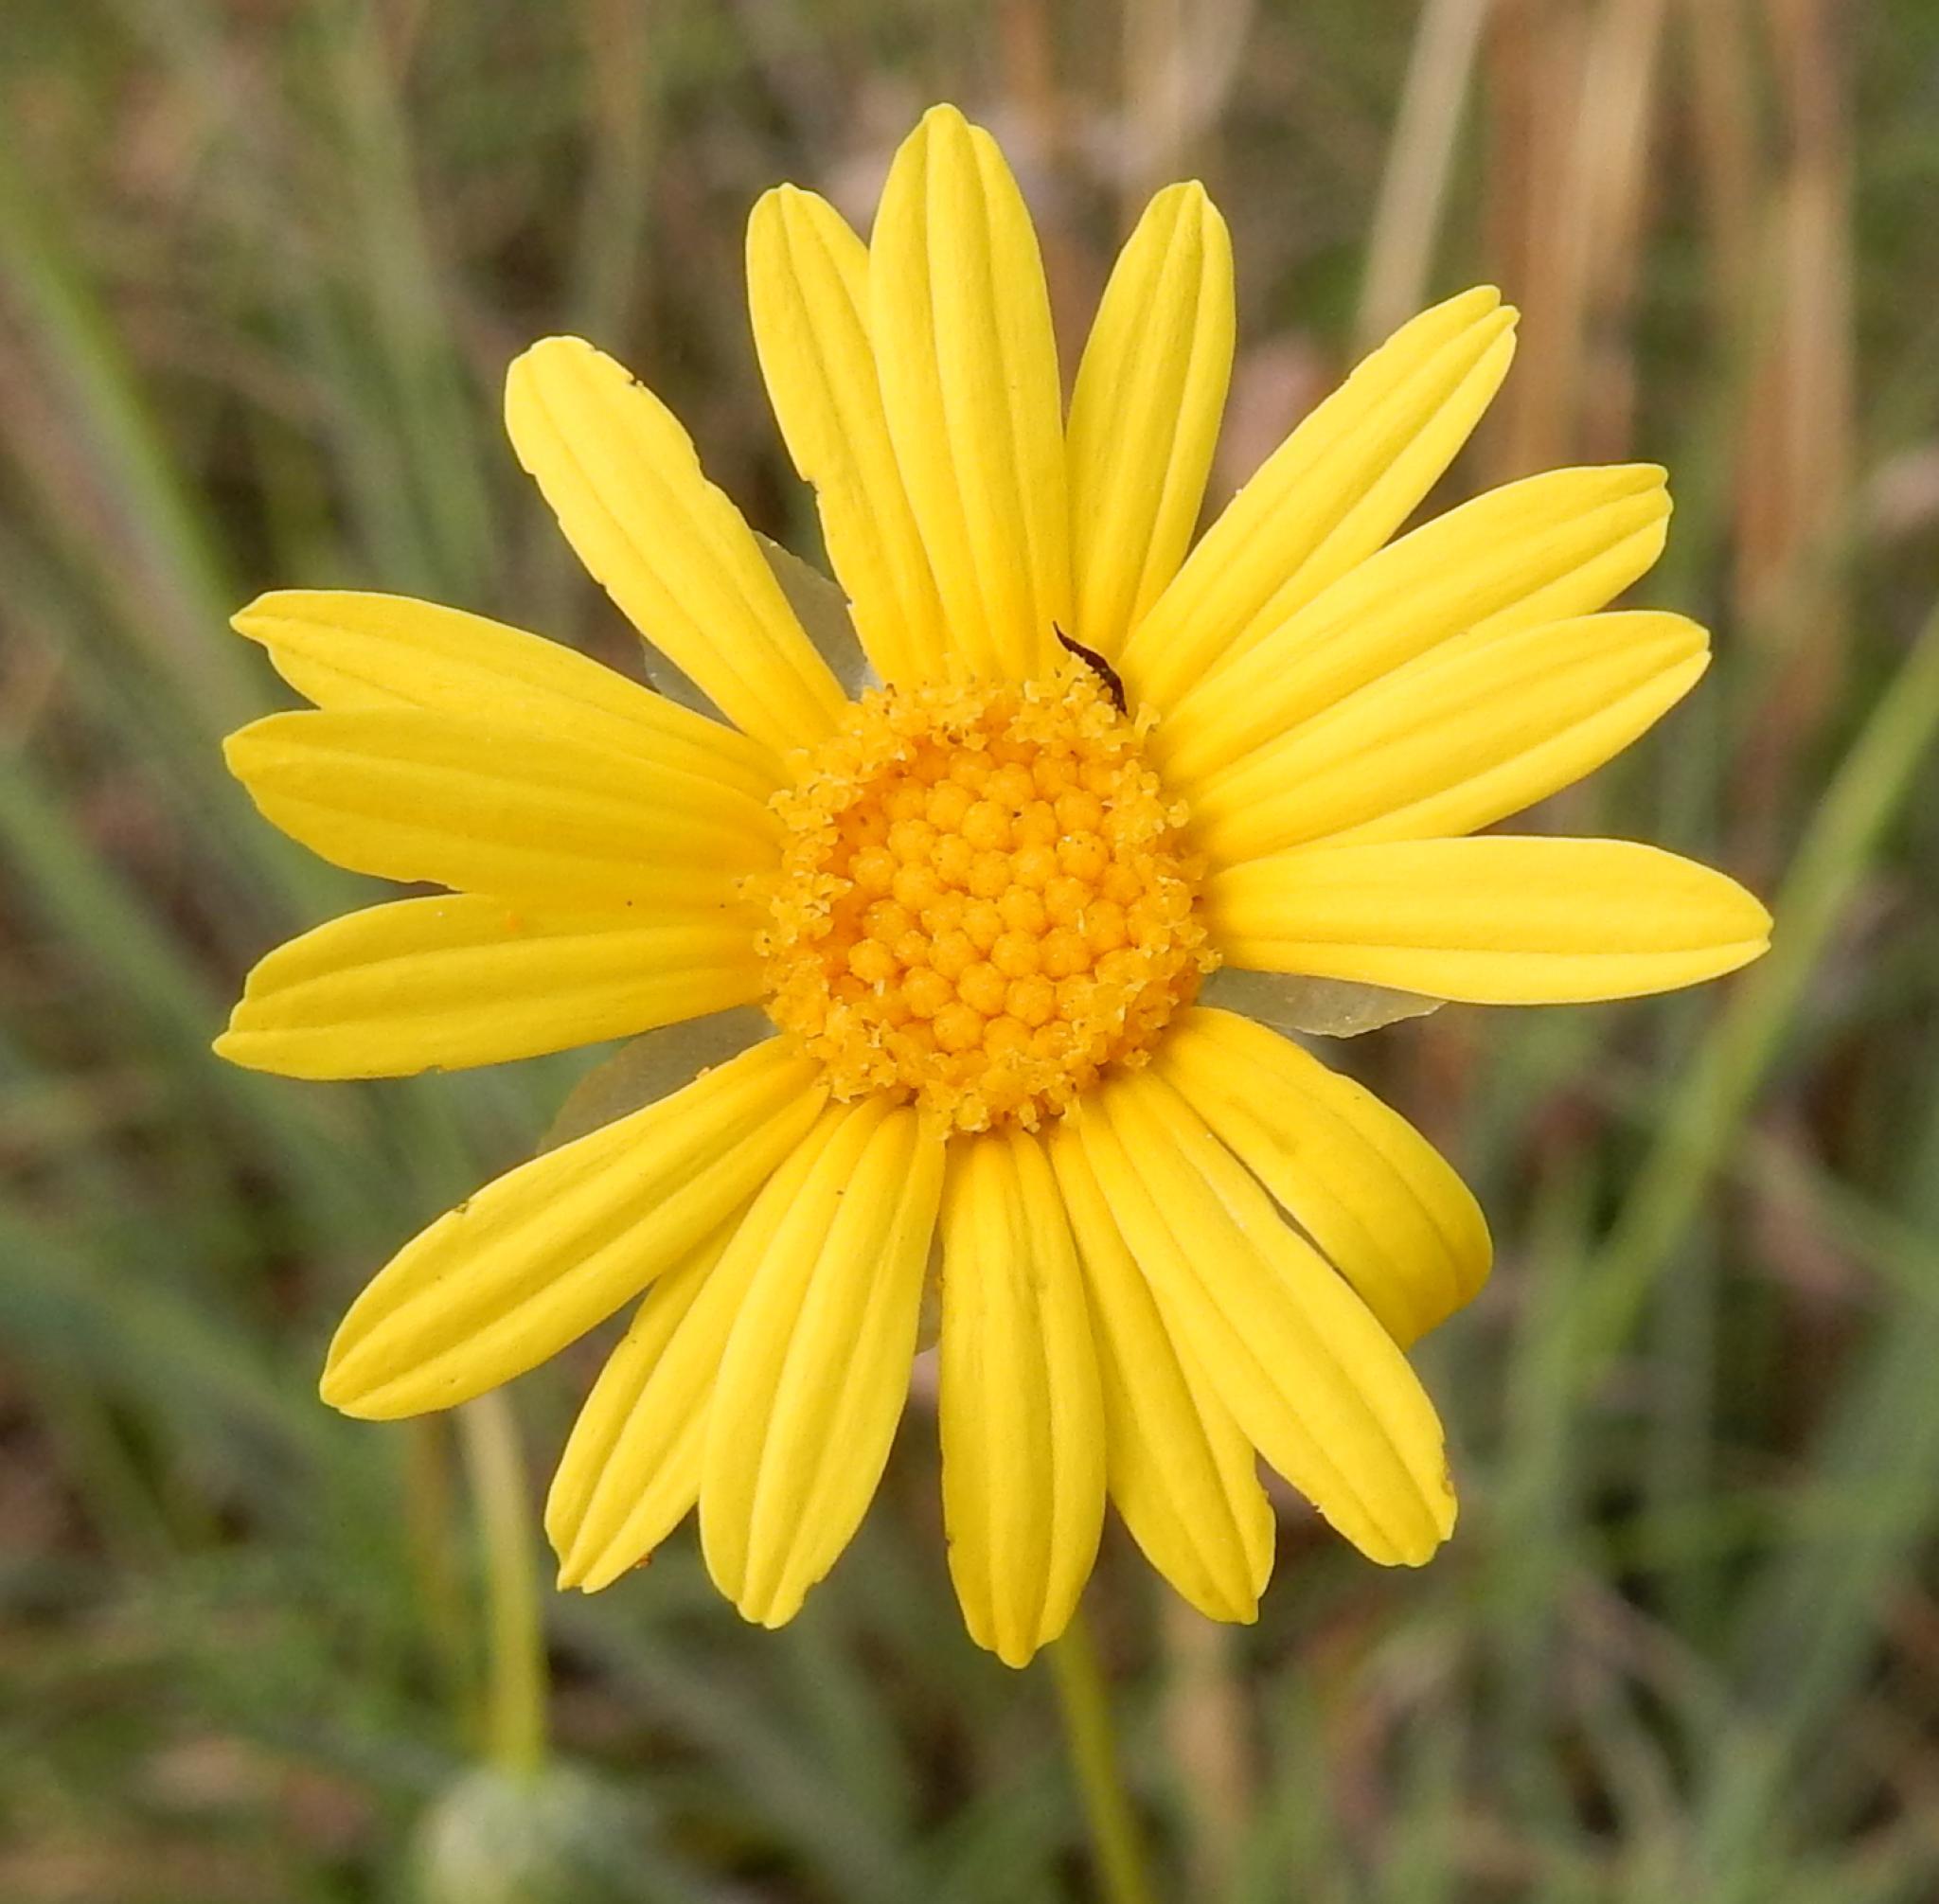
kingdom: Plantae
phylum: Tracheophyta
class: Magnoliopsida
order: Asterales
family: Asteraceae
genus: Ursinia
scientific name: Ursinia nana
